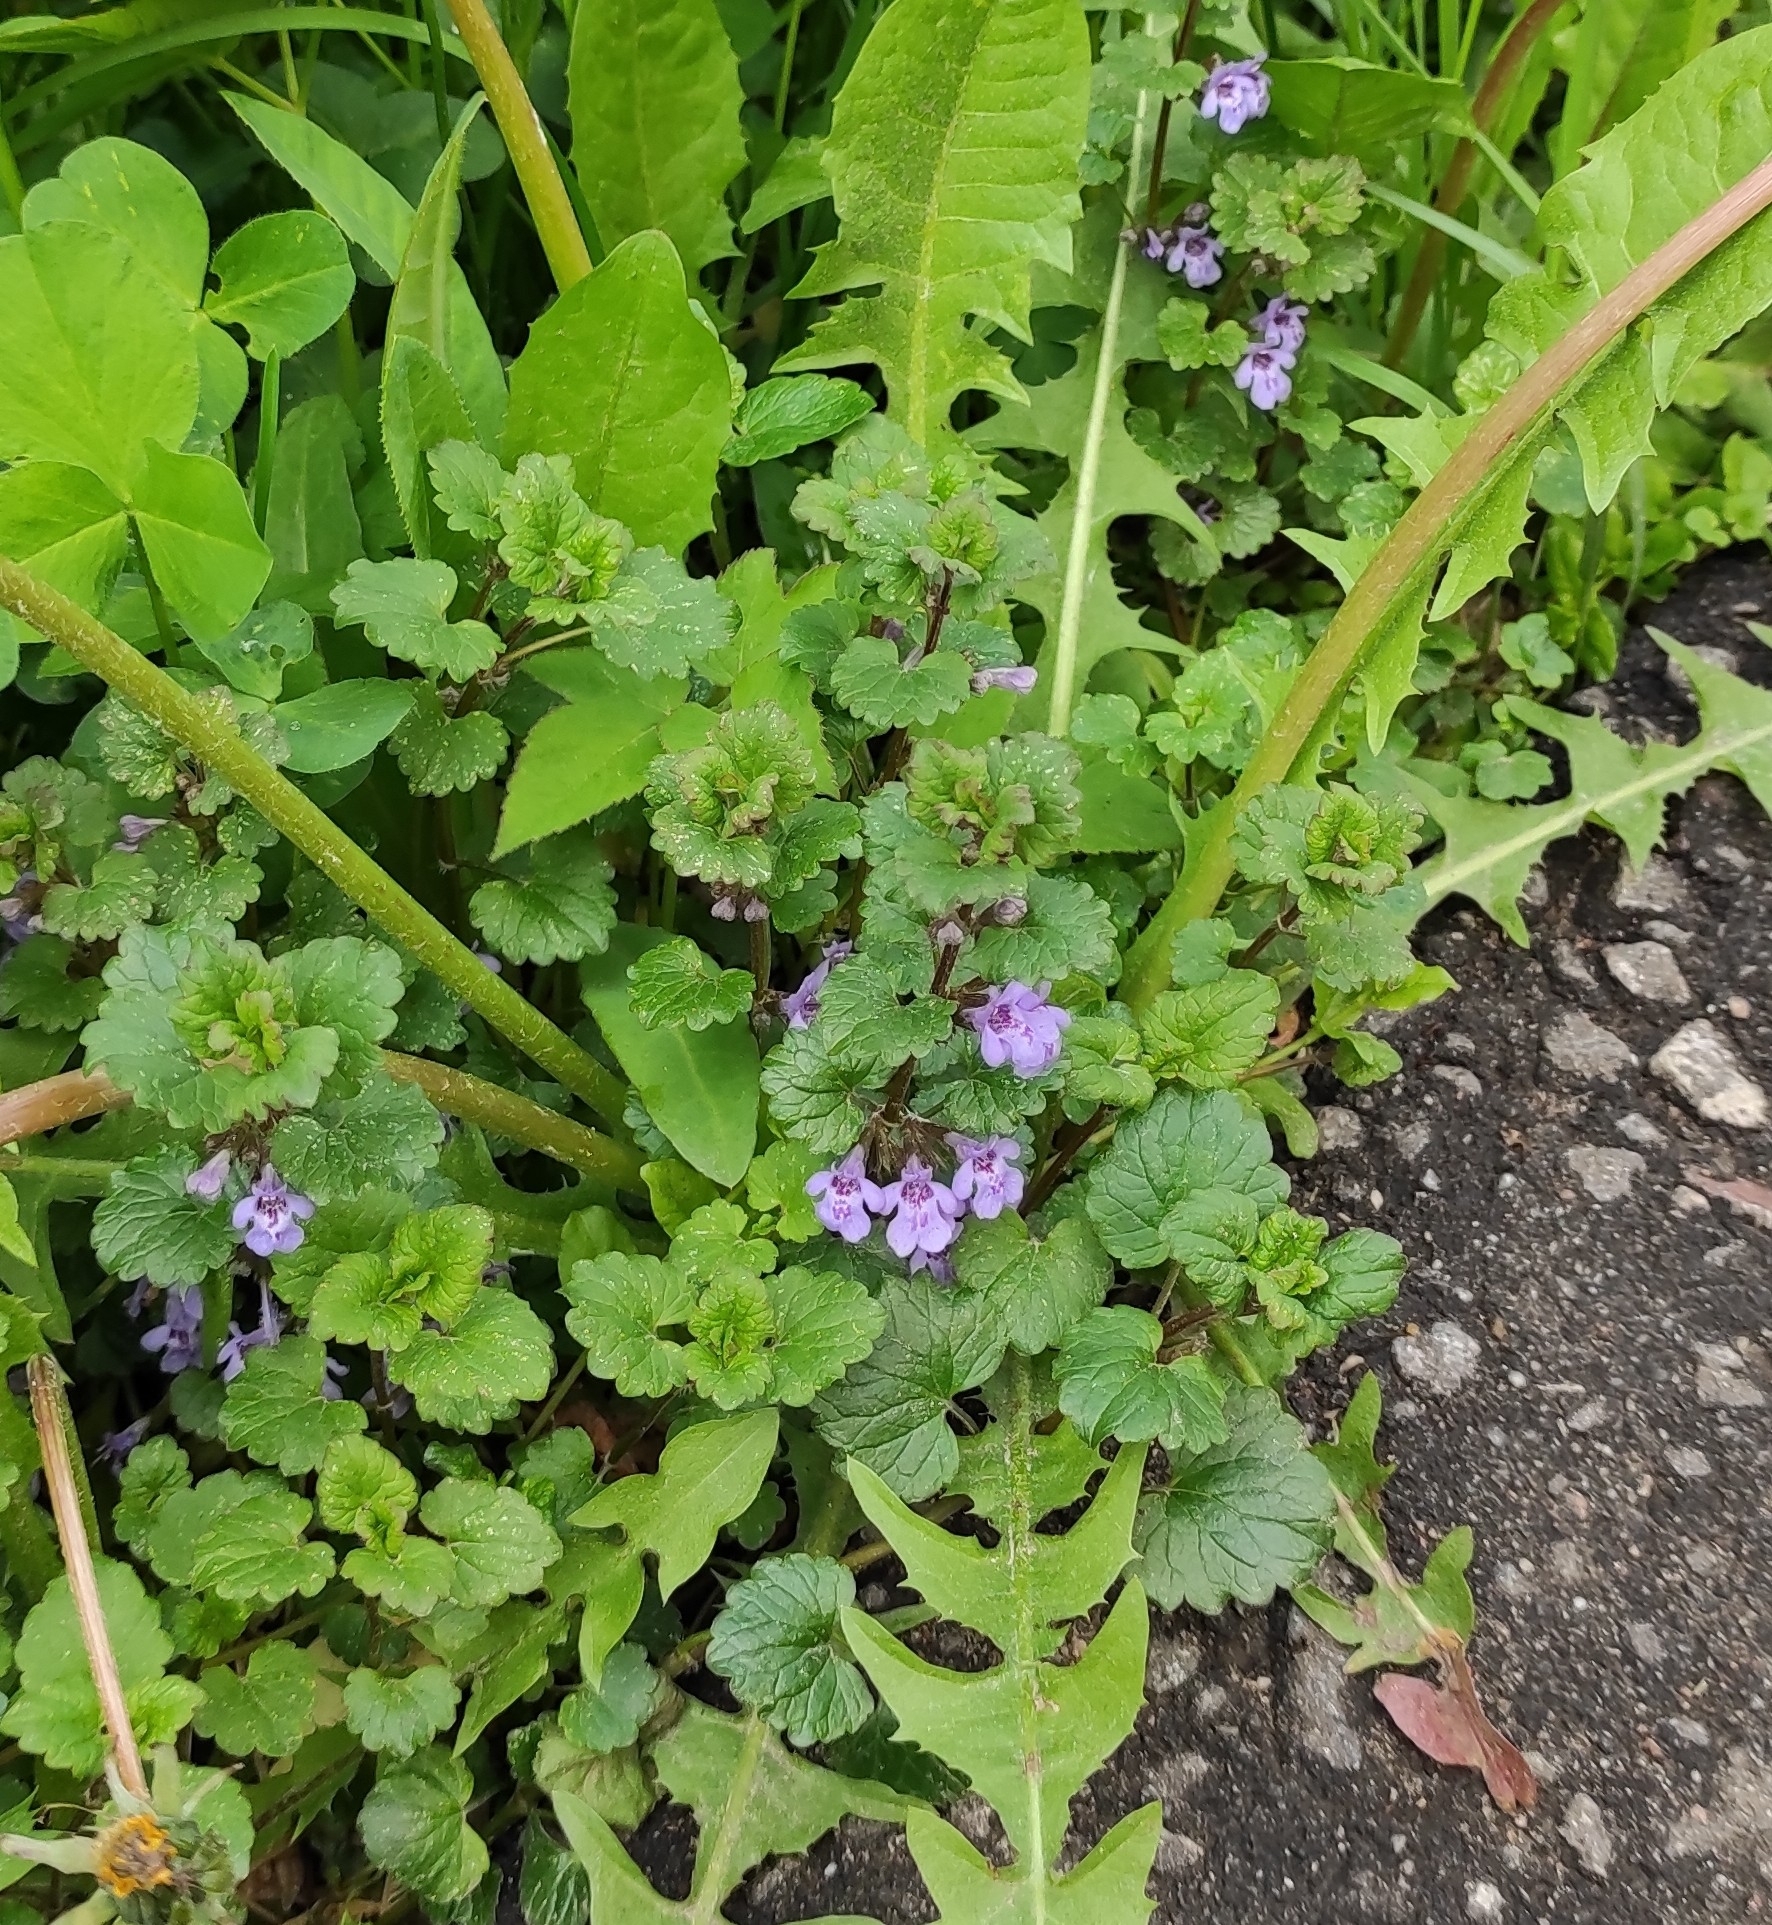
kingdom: Plantae
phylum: Tracheophyta
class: Magnoliopsida
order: Lamiales
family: Lamiaceae
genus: Glechoma
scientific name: Glechoma hederacea
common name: Ground ivy
